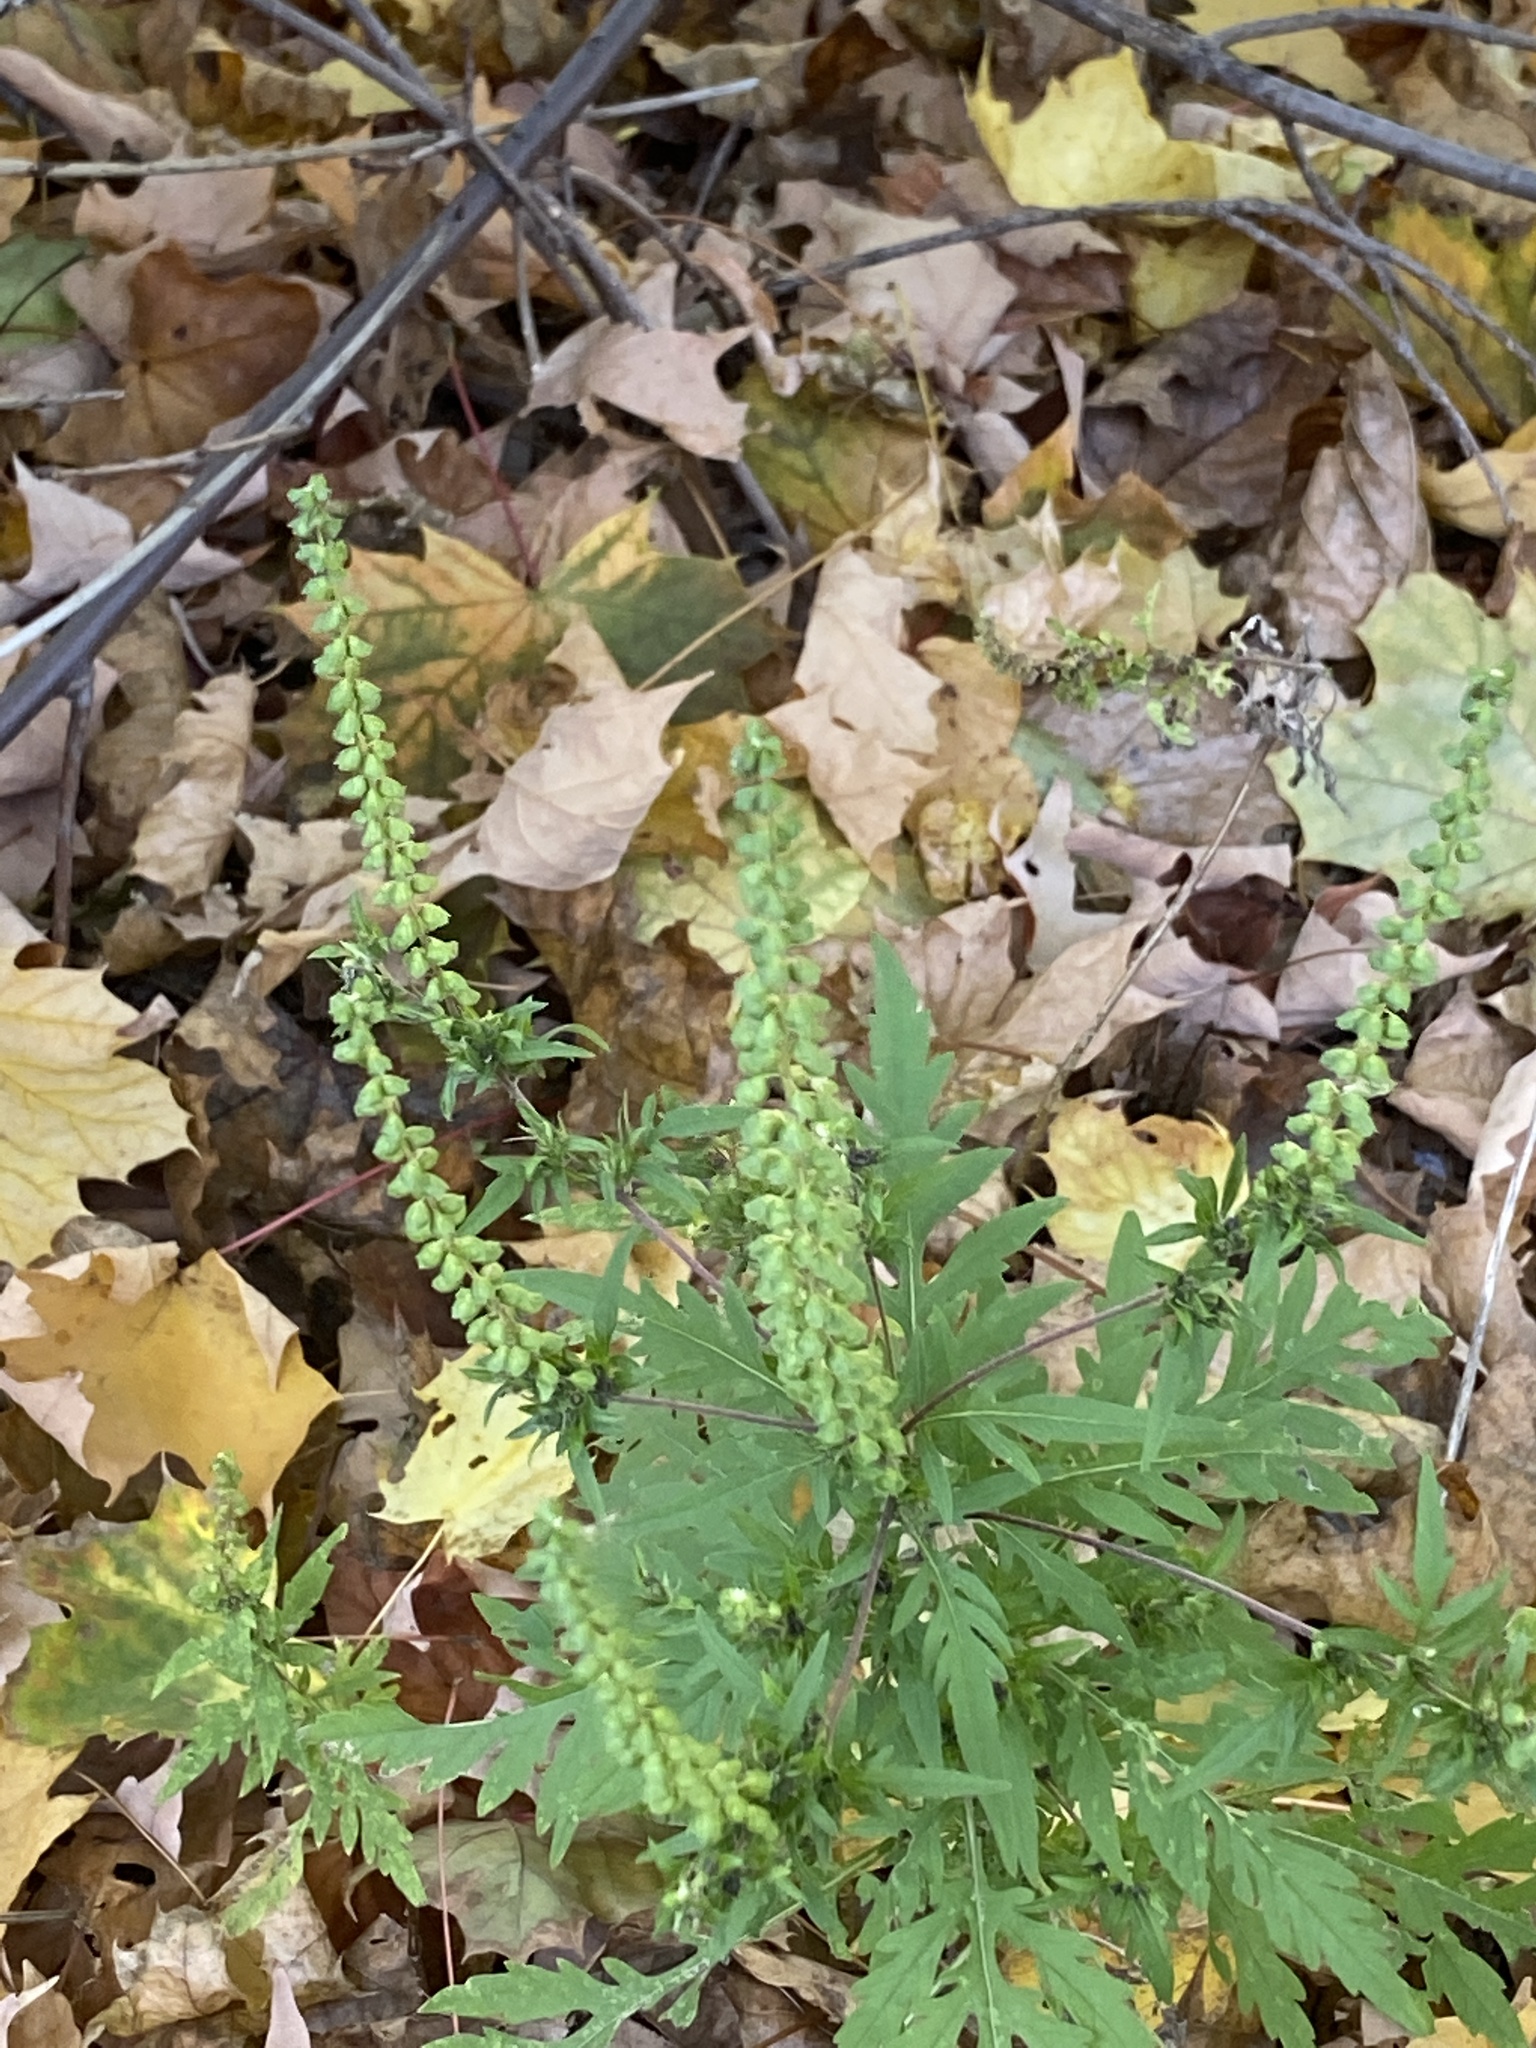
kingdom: Plantae
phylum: Tracheophyta
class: Magnoliopsida
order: Asterales
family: Asteraceae
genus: Ambrosia
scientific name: Ambrosia artemisiifolia
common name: Annual ragweed
